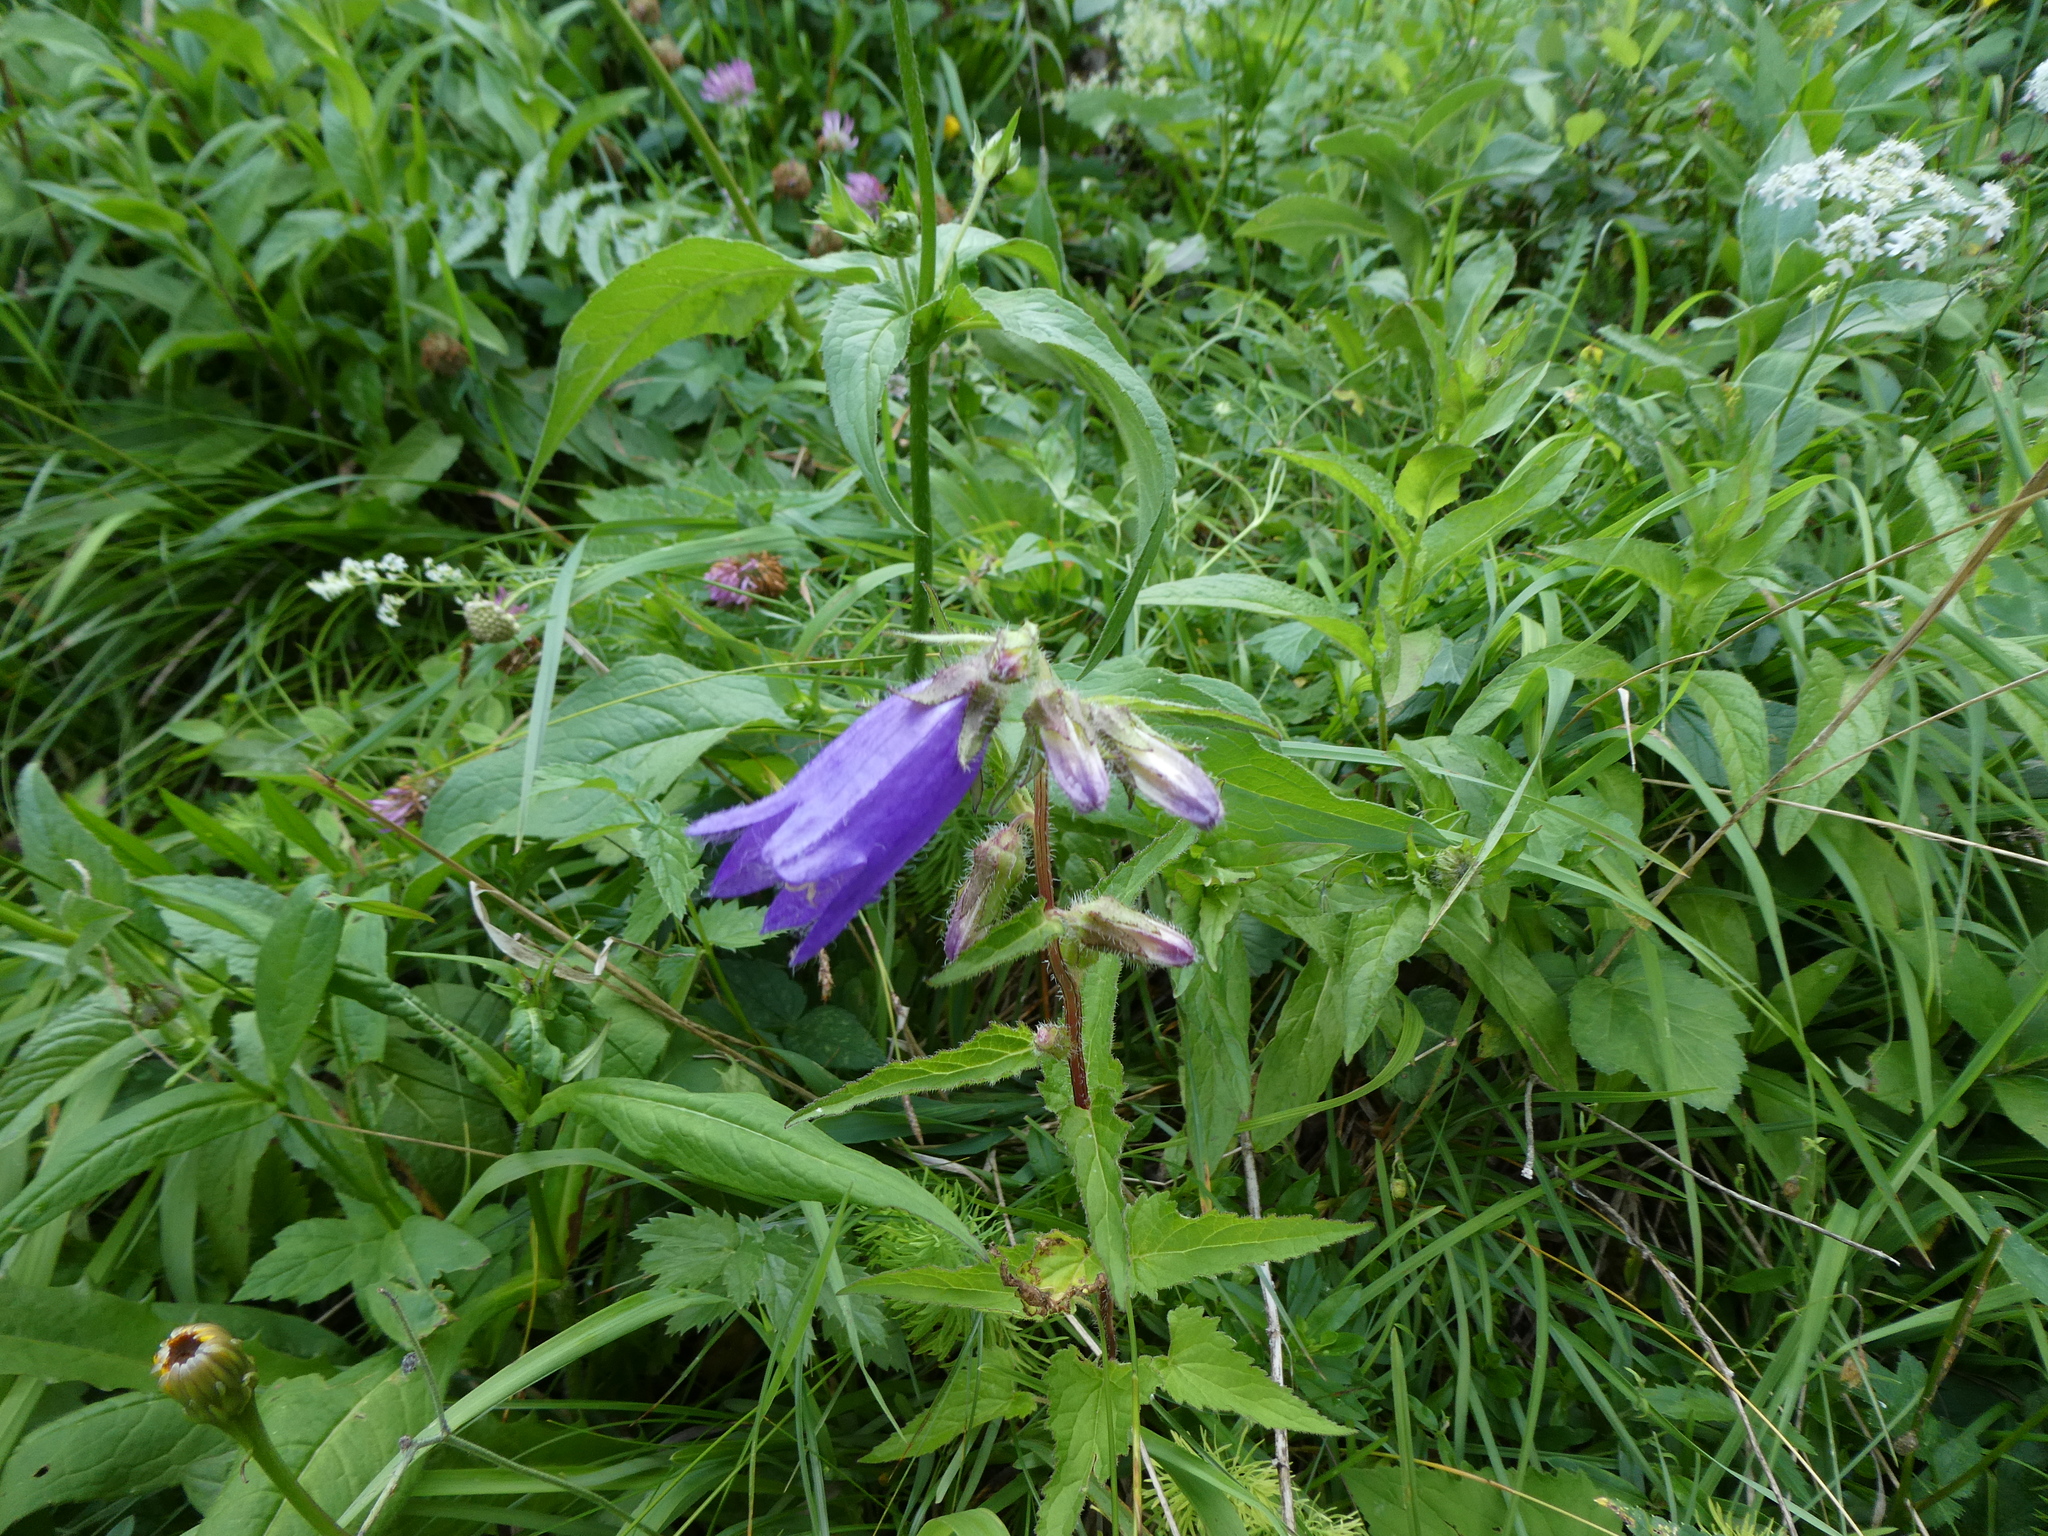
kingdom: Plantae
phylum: Tracheophyta
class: Magnoliopsida
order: Asterales
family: Campanulaceae
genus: Campanula
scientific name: Campanula trachelium
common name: Nettle-leaved bellflower
